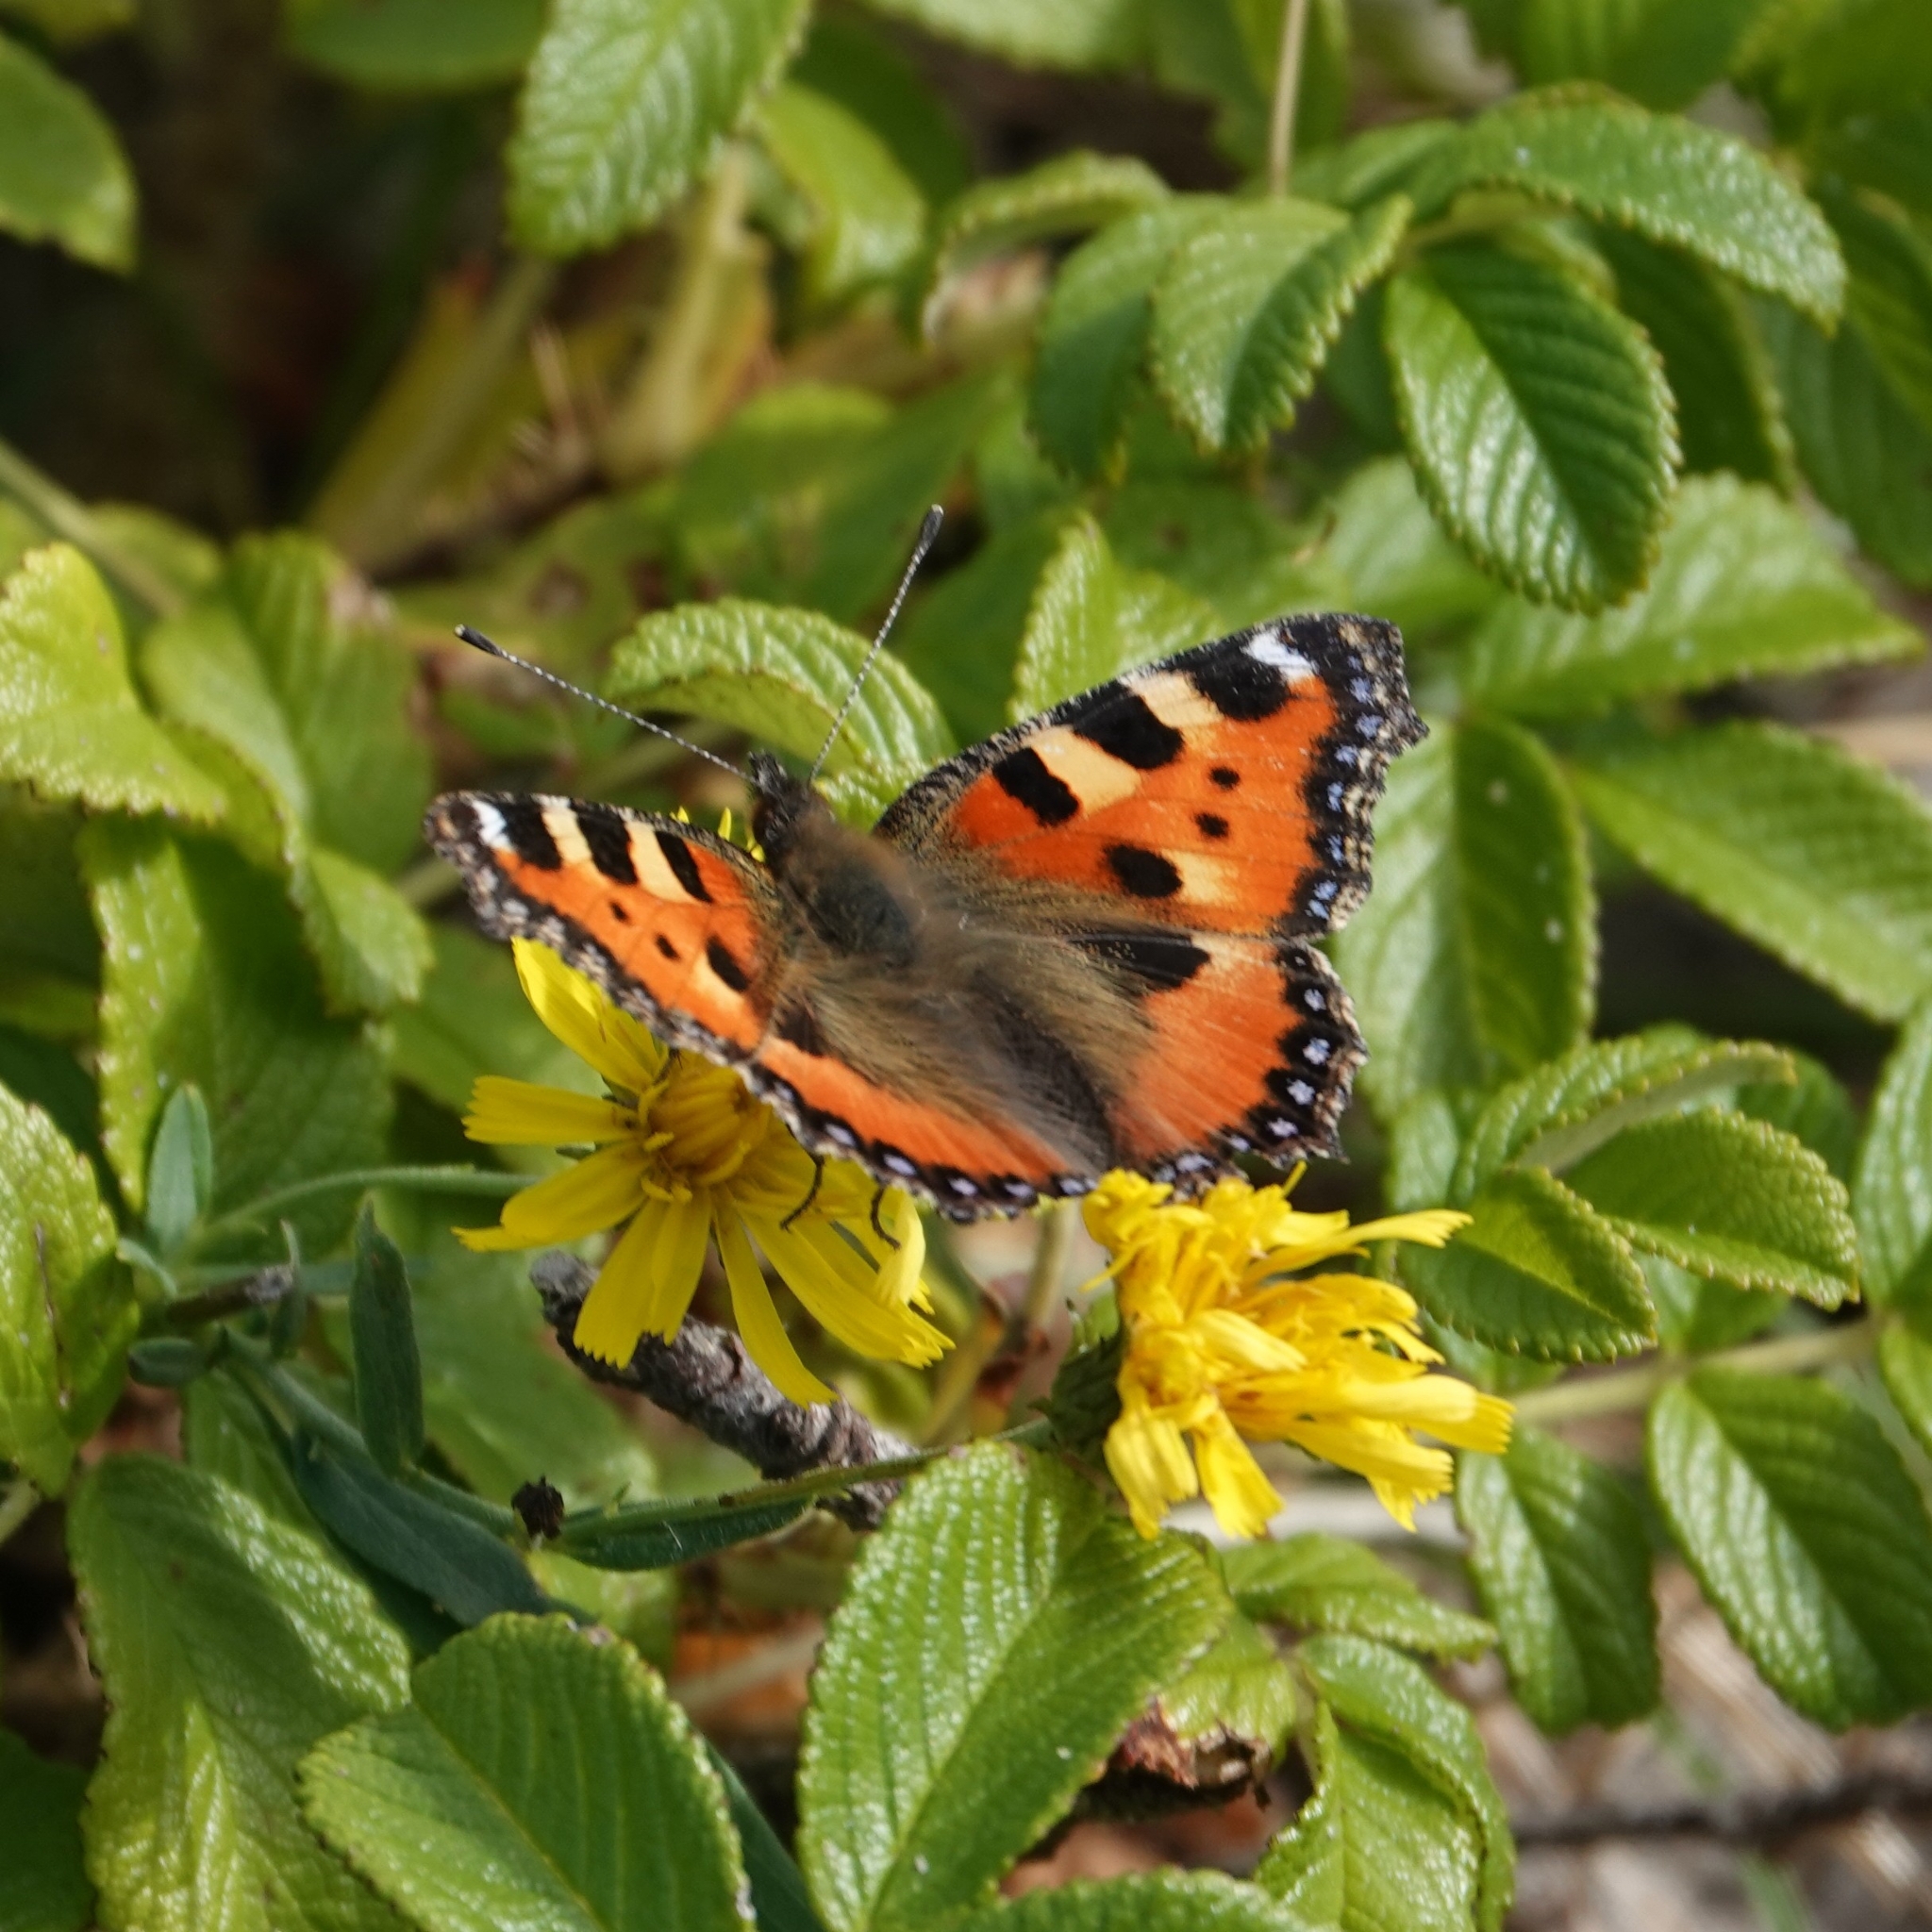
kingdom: Animalia
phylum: Arthropoda
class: Insecta
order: Lepidoptera
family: Nymphalidae
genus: Aglais
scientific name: Aglais urticae
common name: Small tortoiseshell
